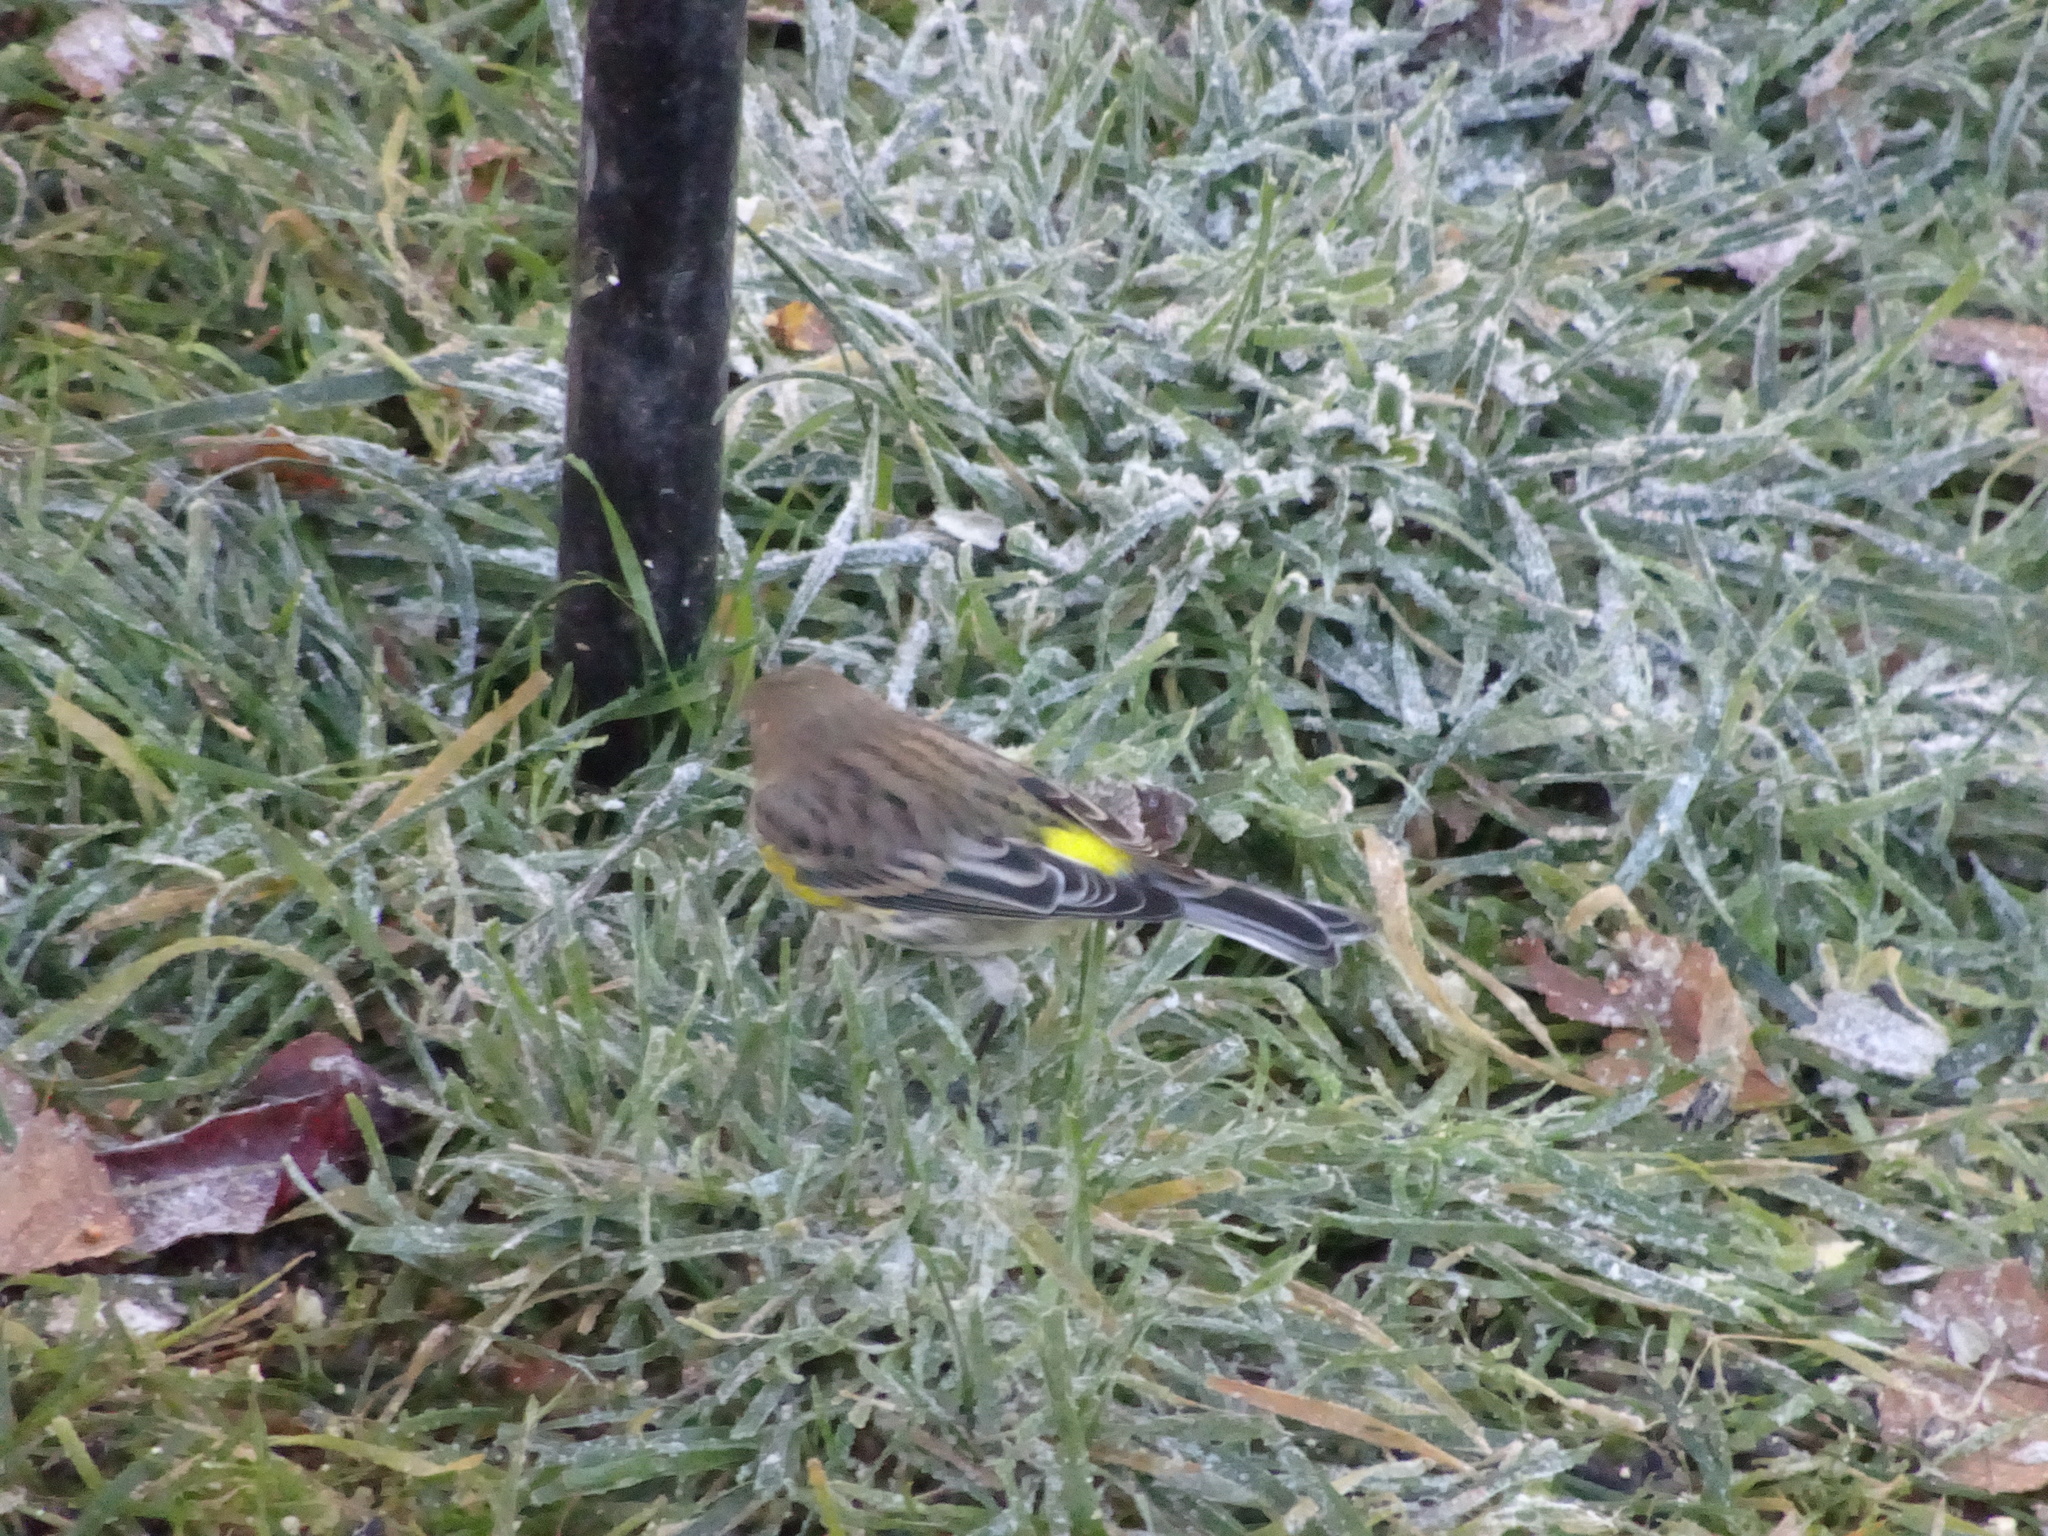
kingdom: Animalia
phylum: Chordata
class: Aves
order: Passeriformes
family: Parulidae
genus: Setophaga
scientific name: Setophaga coronata
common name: Myrtle warbler
